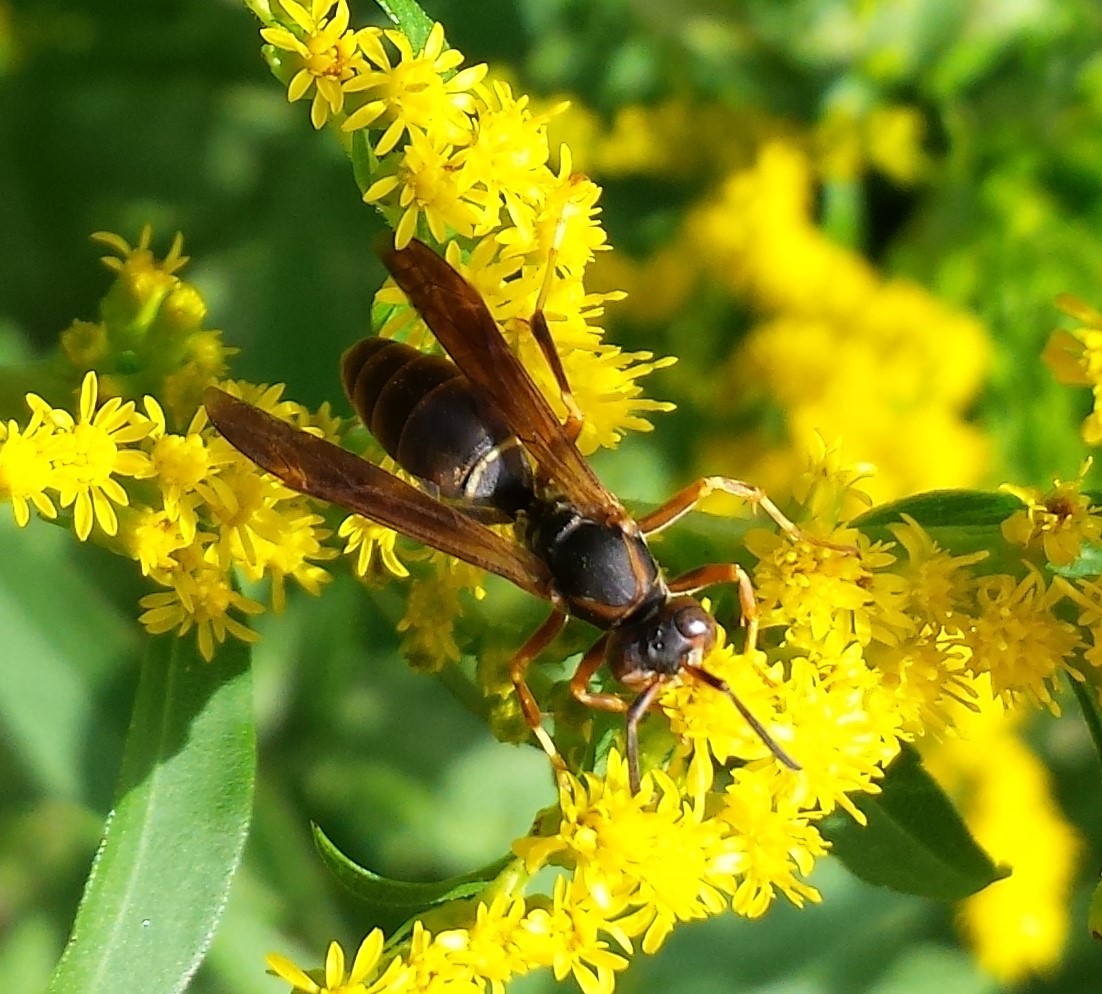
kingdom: Animalia
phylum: Arthropoda
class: Insecta
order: Hymenoptera
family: Eumenidae
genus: Polistes
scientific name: Polistes fuscatus
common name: Dark paper wasp
